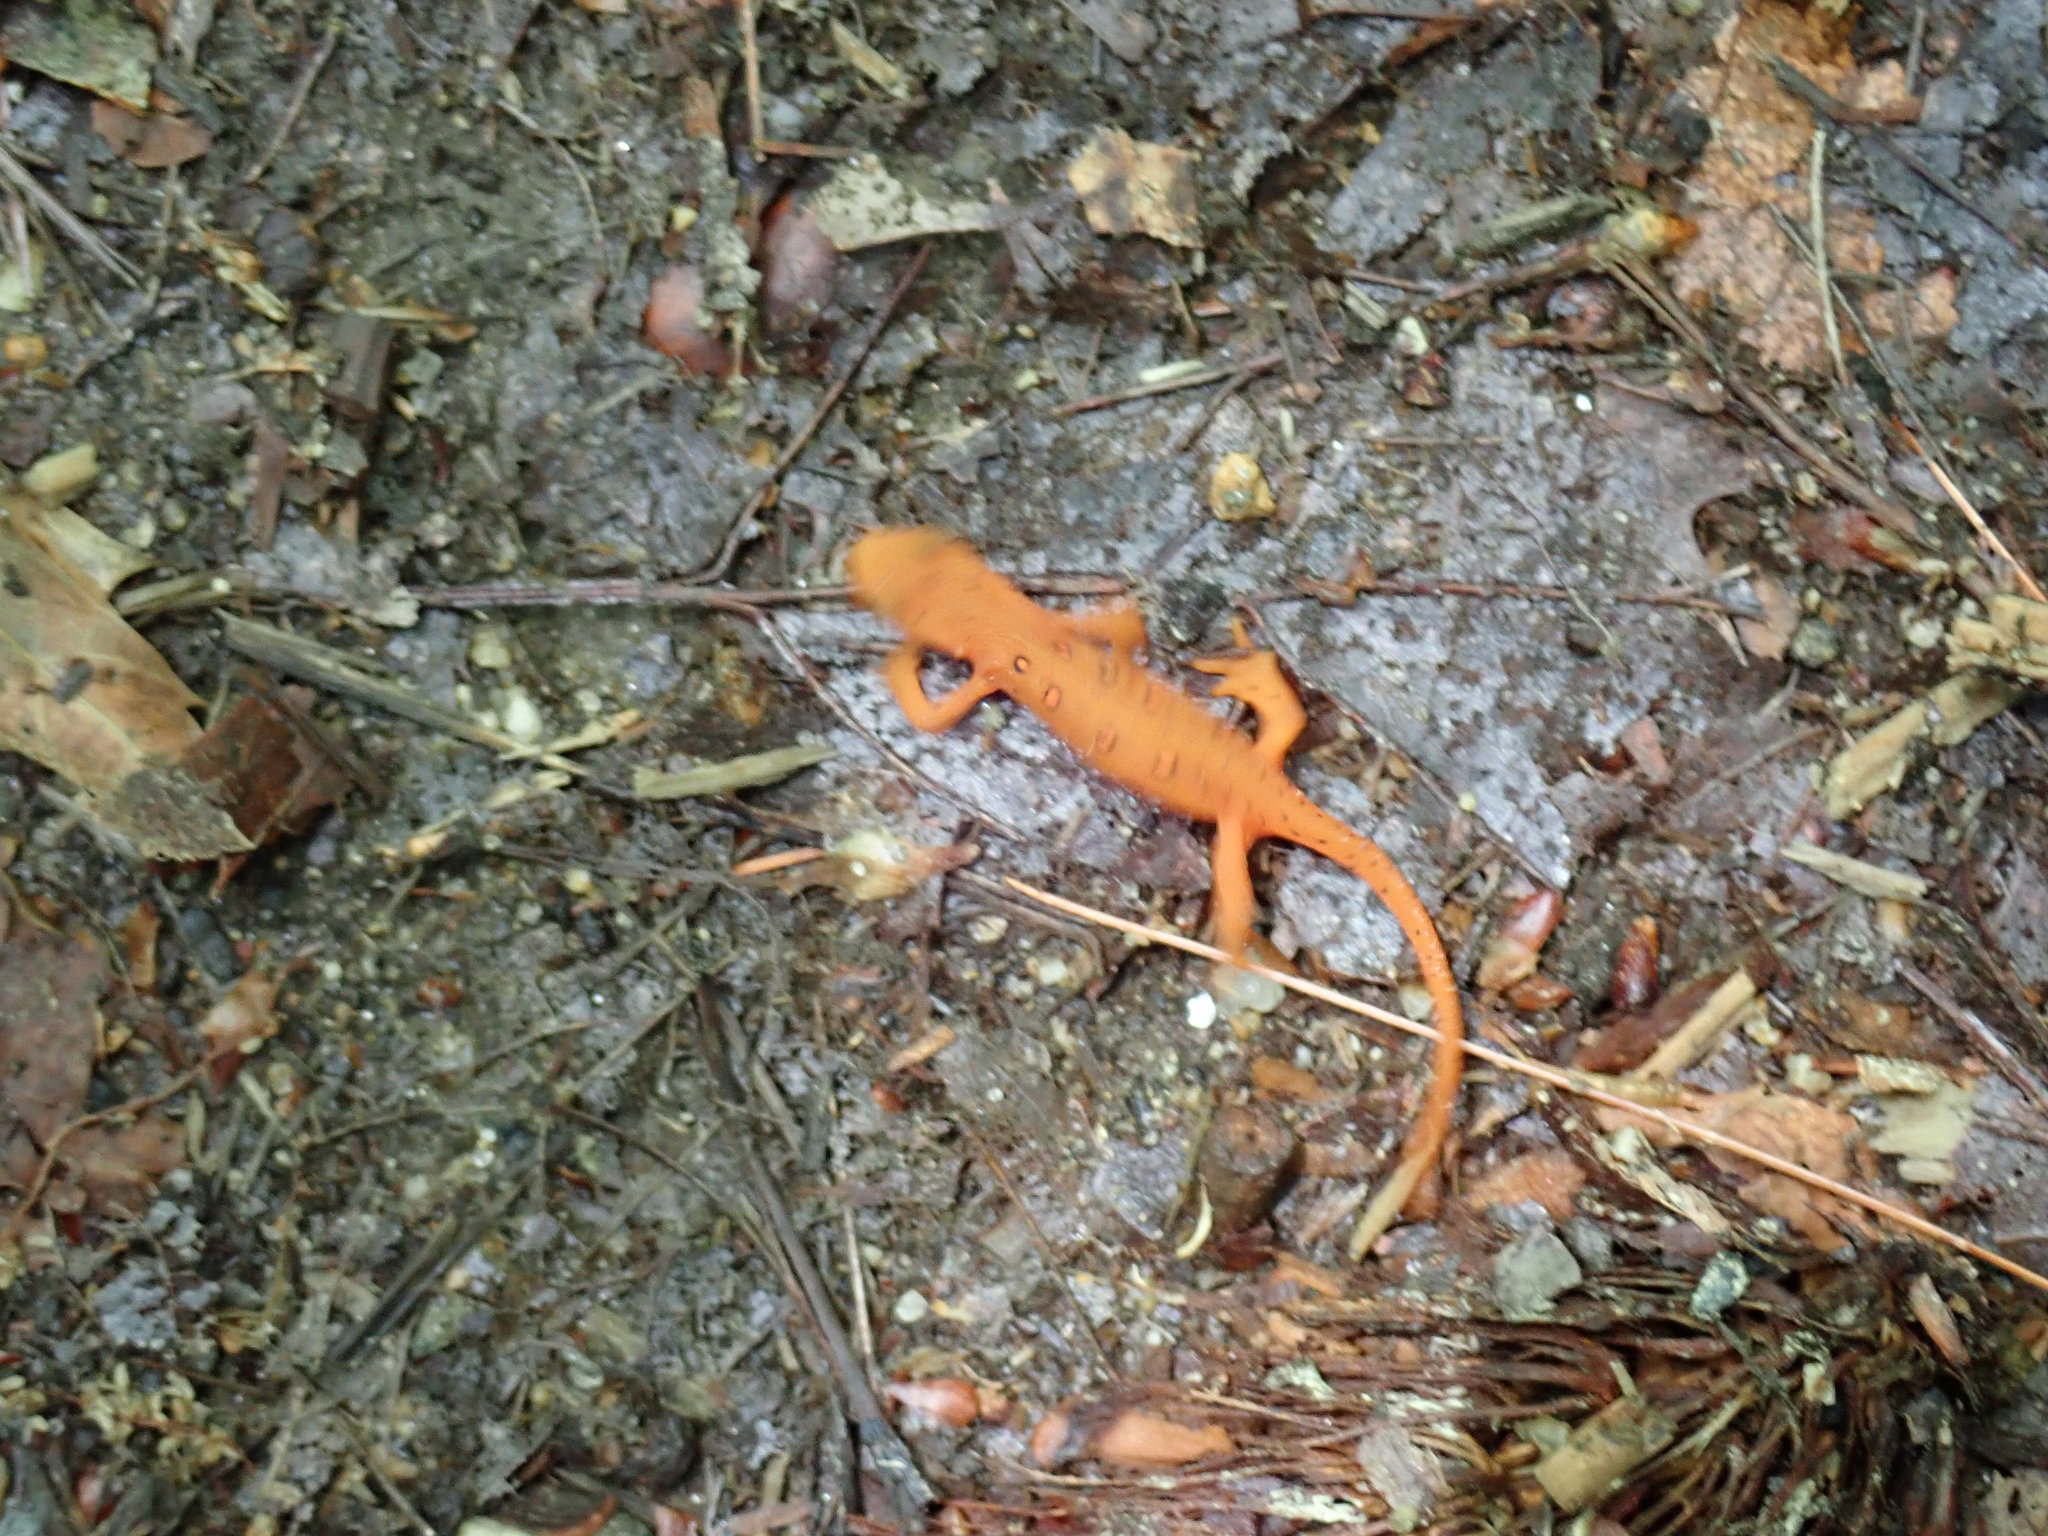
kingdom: Animalia
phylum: Chordata
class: Amphibia
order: Caudata
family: Salamandridae
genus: Notophthalmus
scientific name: Notophthalmus viridescens
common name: Eastern newt
